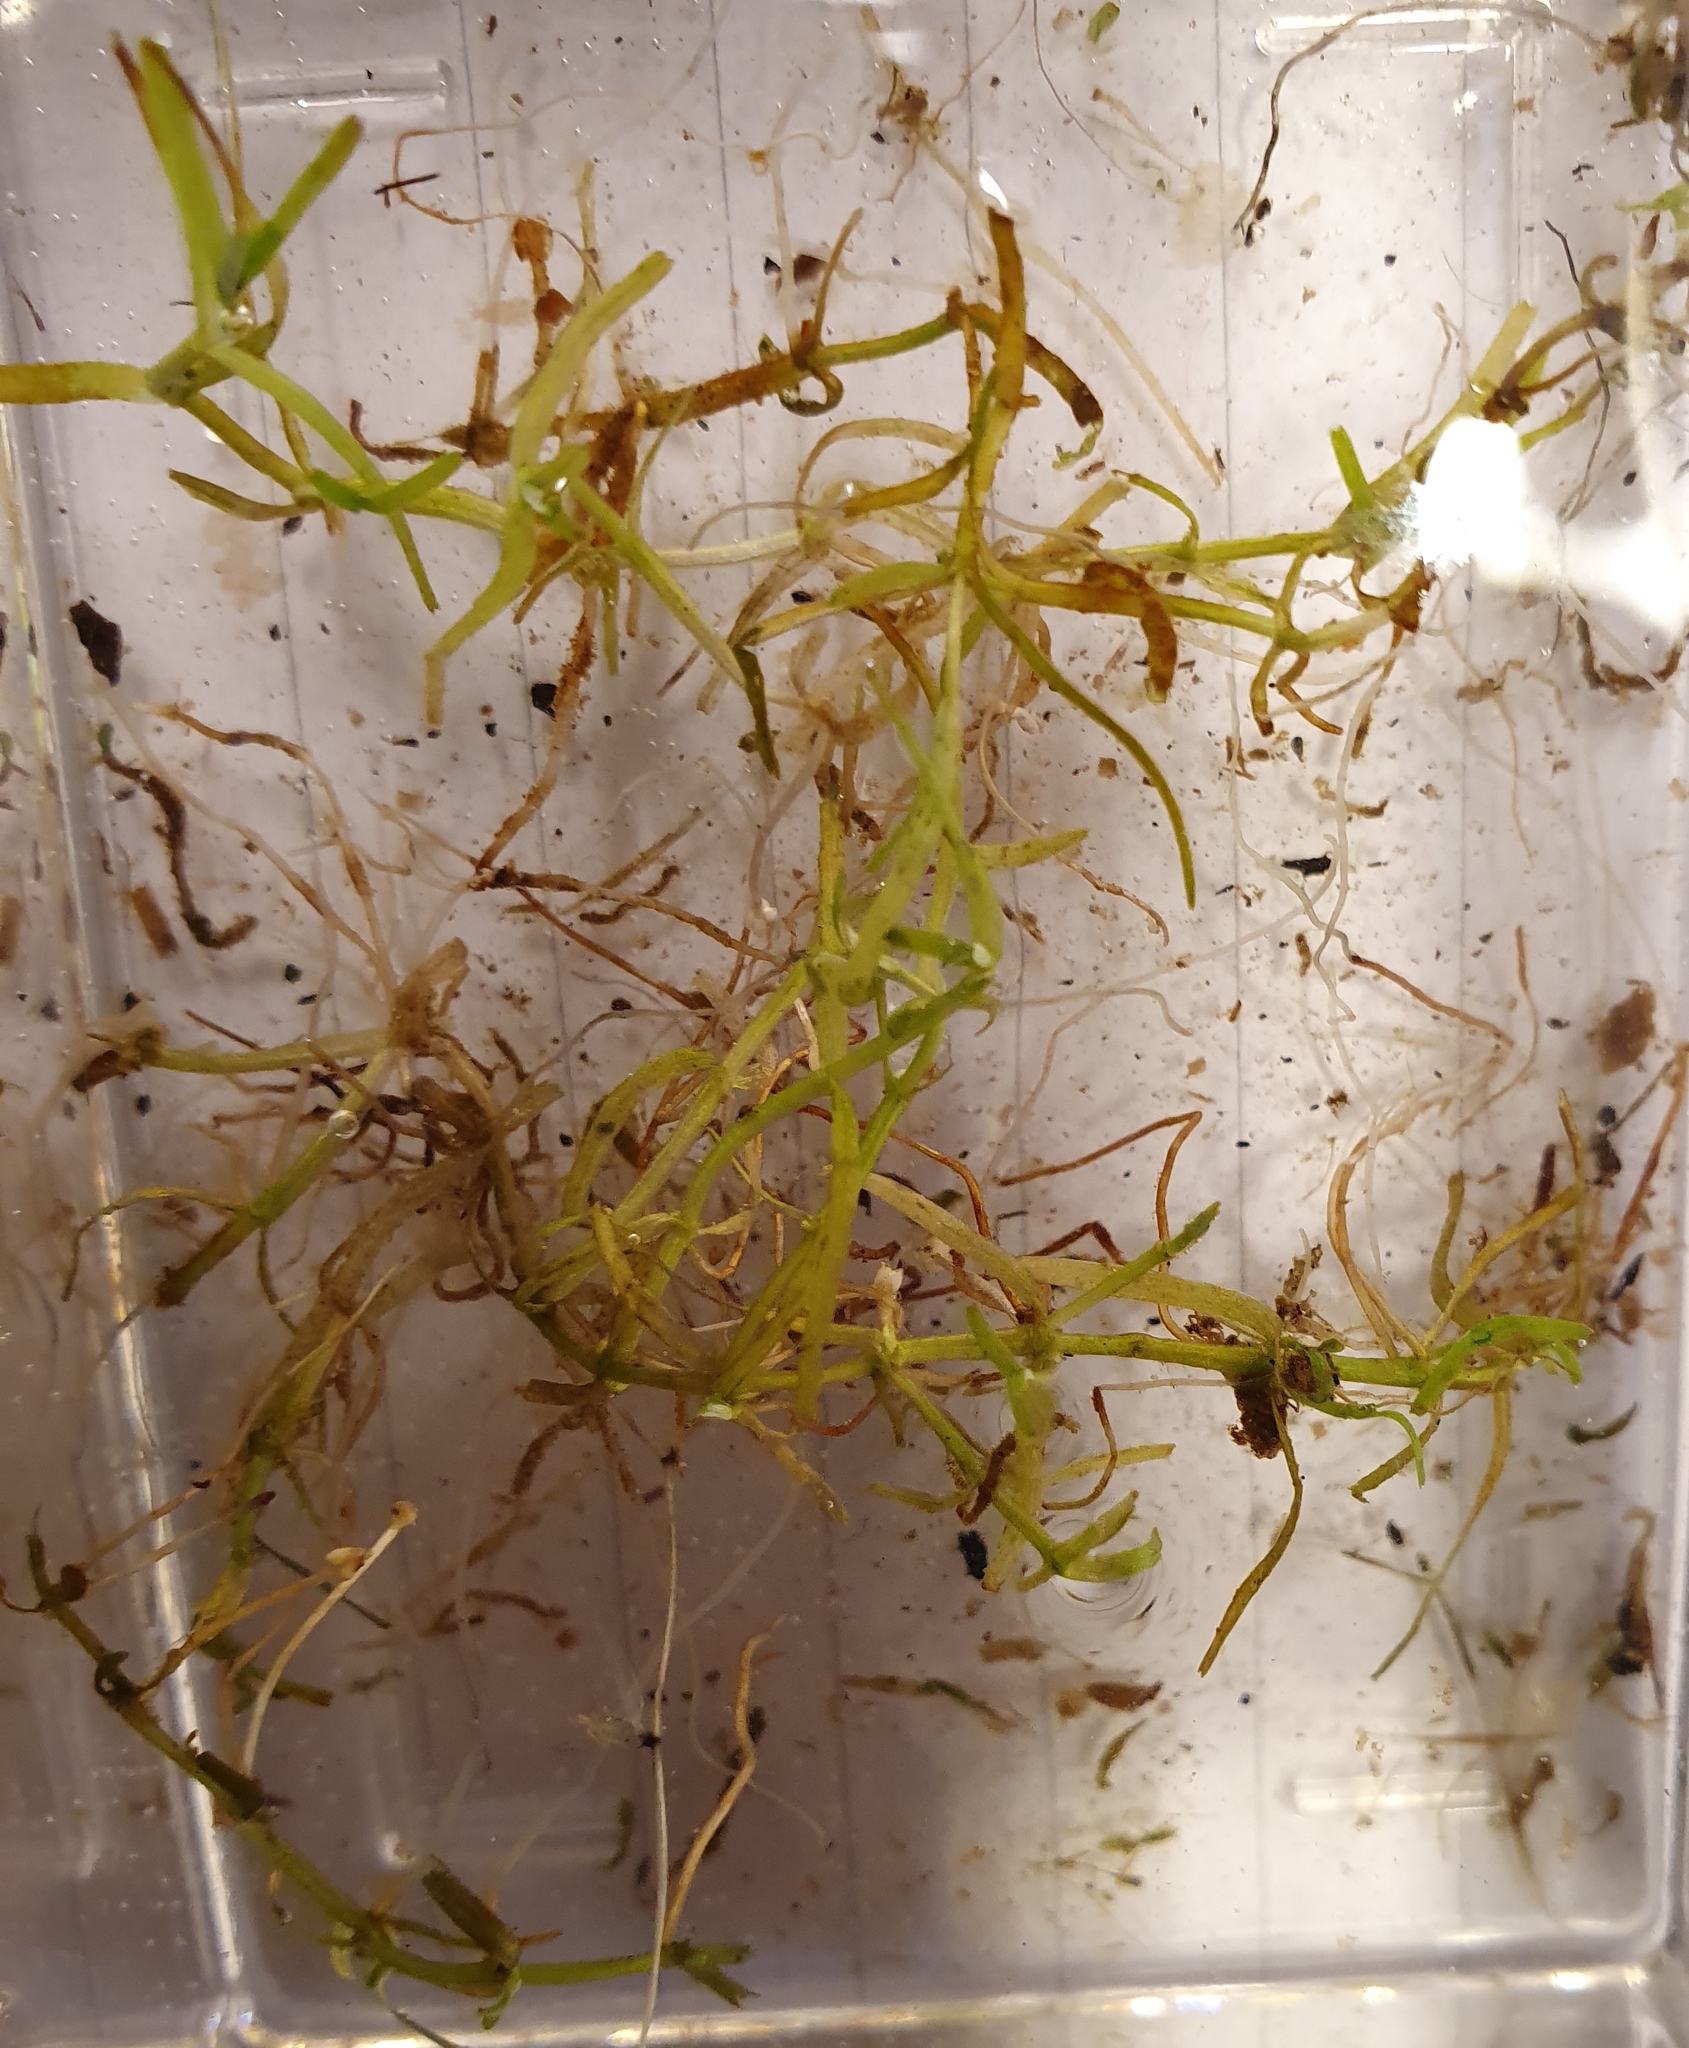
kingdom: Plantae
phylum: Tracheophyta
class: Magnoliopsida
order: Lamiales
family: Plantaginaceae
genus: Callitriche
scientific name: Callitriche brutia
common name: Pedunculate water-starwort
